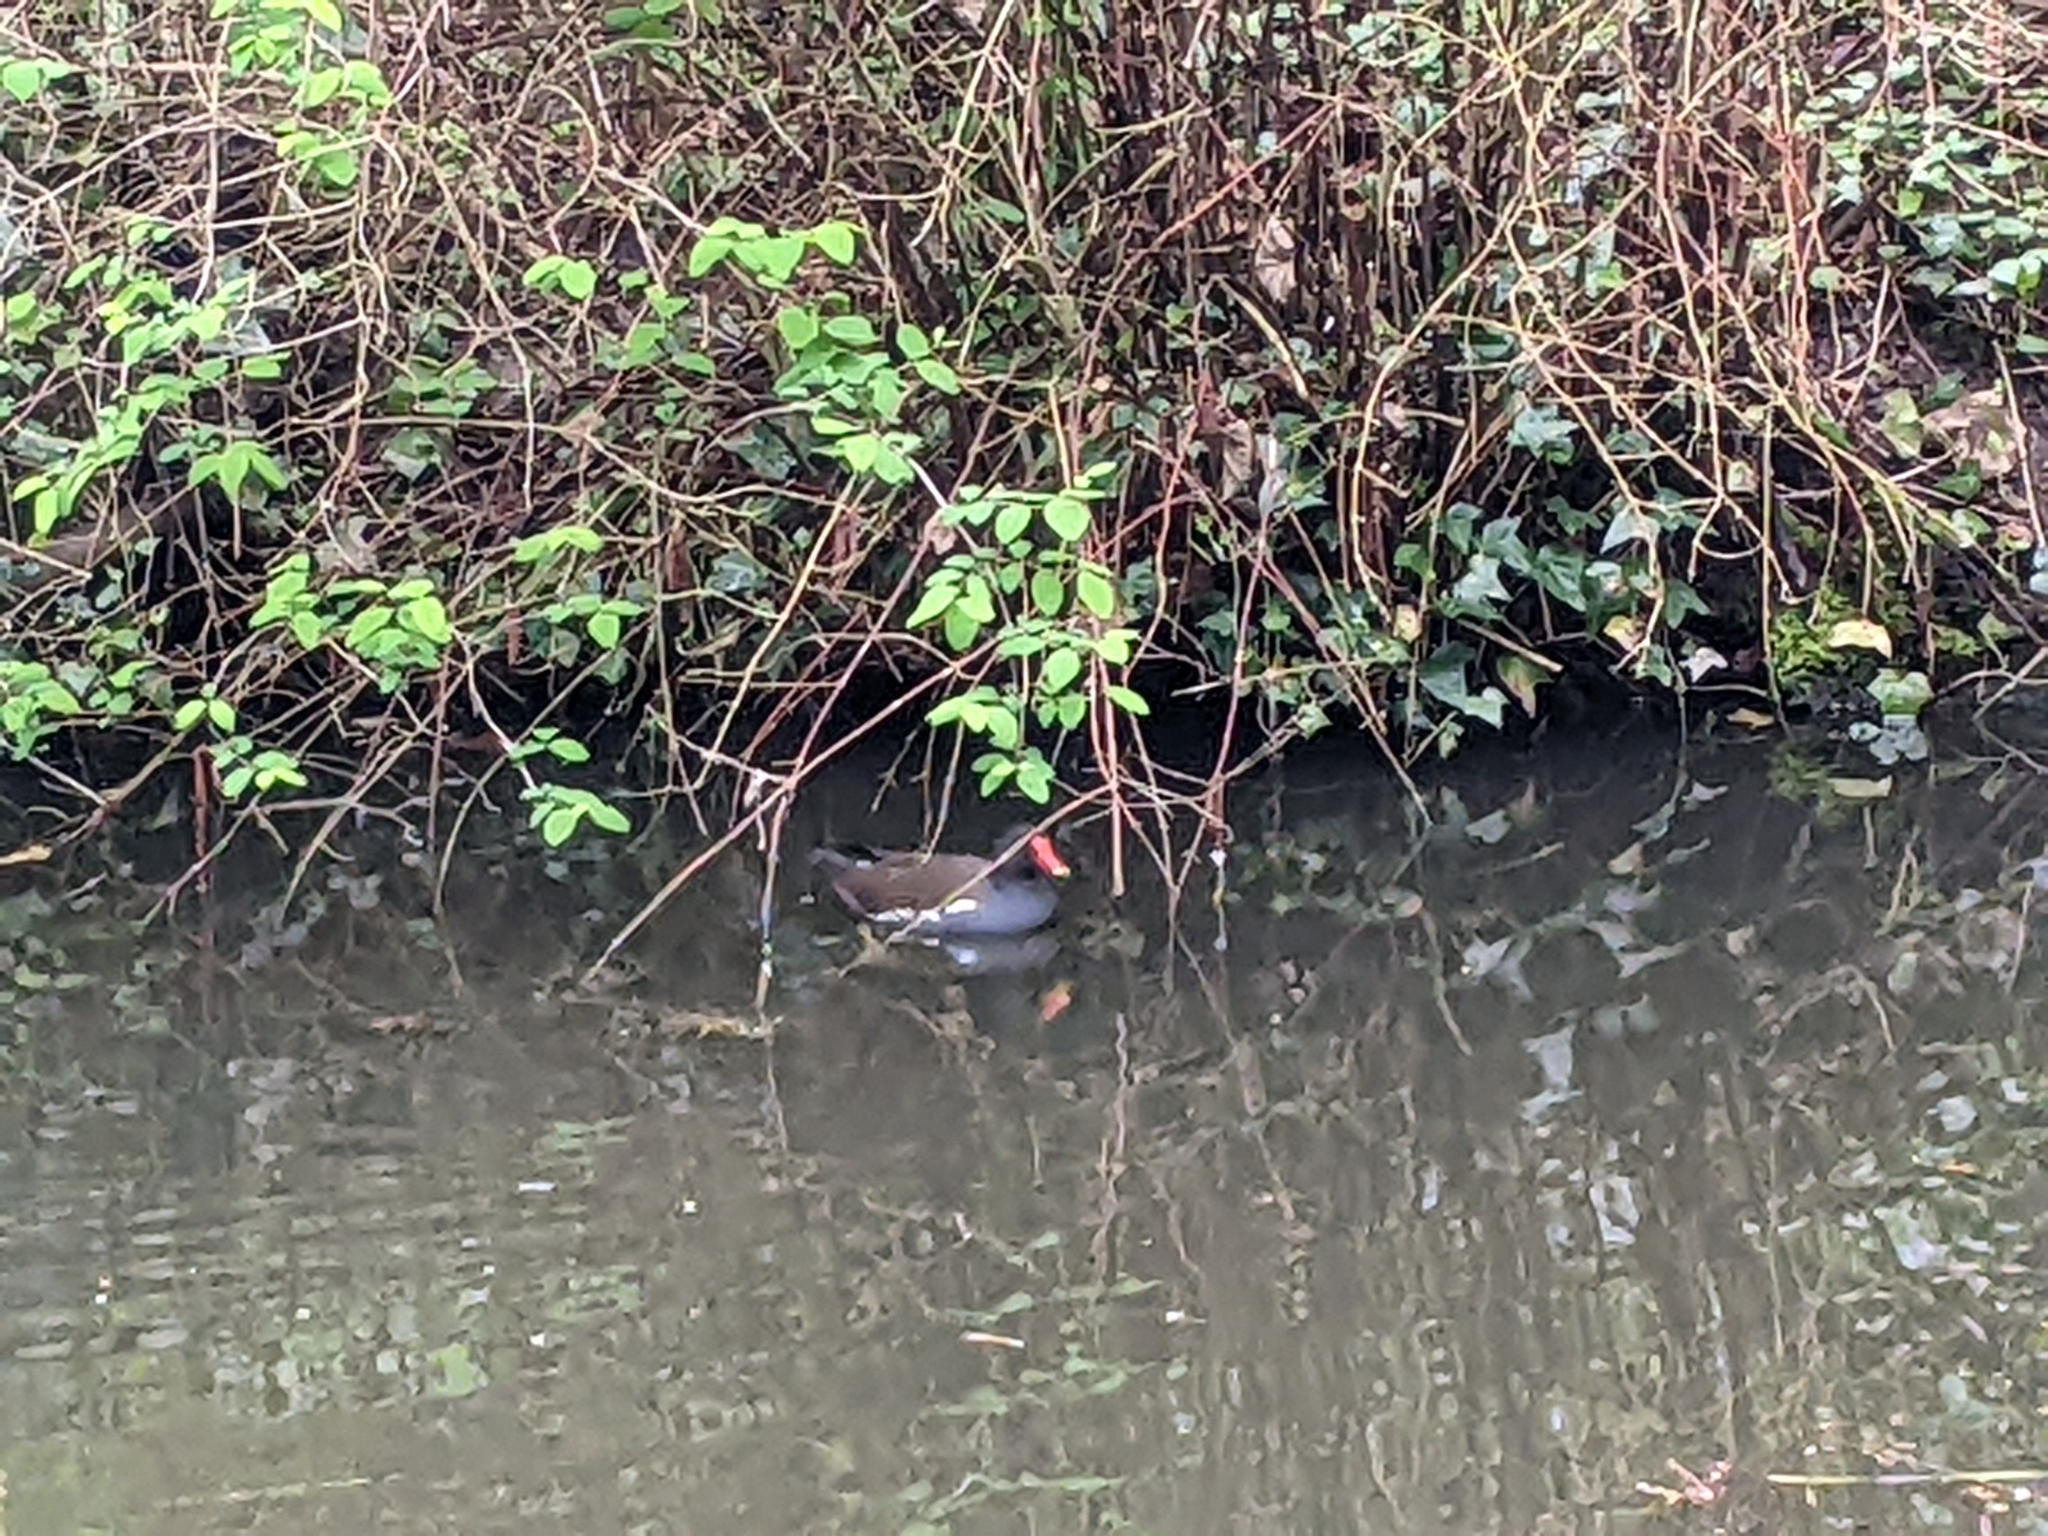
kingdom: Animalia
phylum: Chordata
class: Aves
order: Gruiformes
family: Rallidae
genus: Gallinula
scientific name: Gallinula chloropus
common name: Common moorhen
